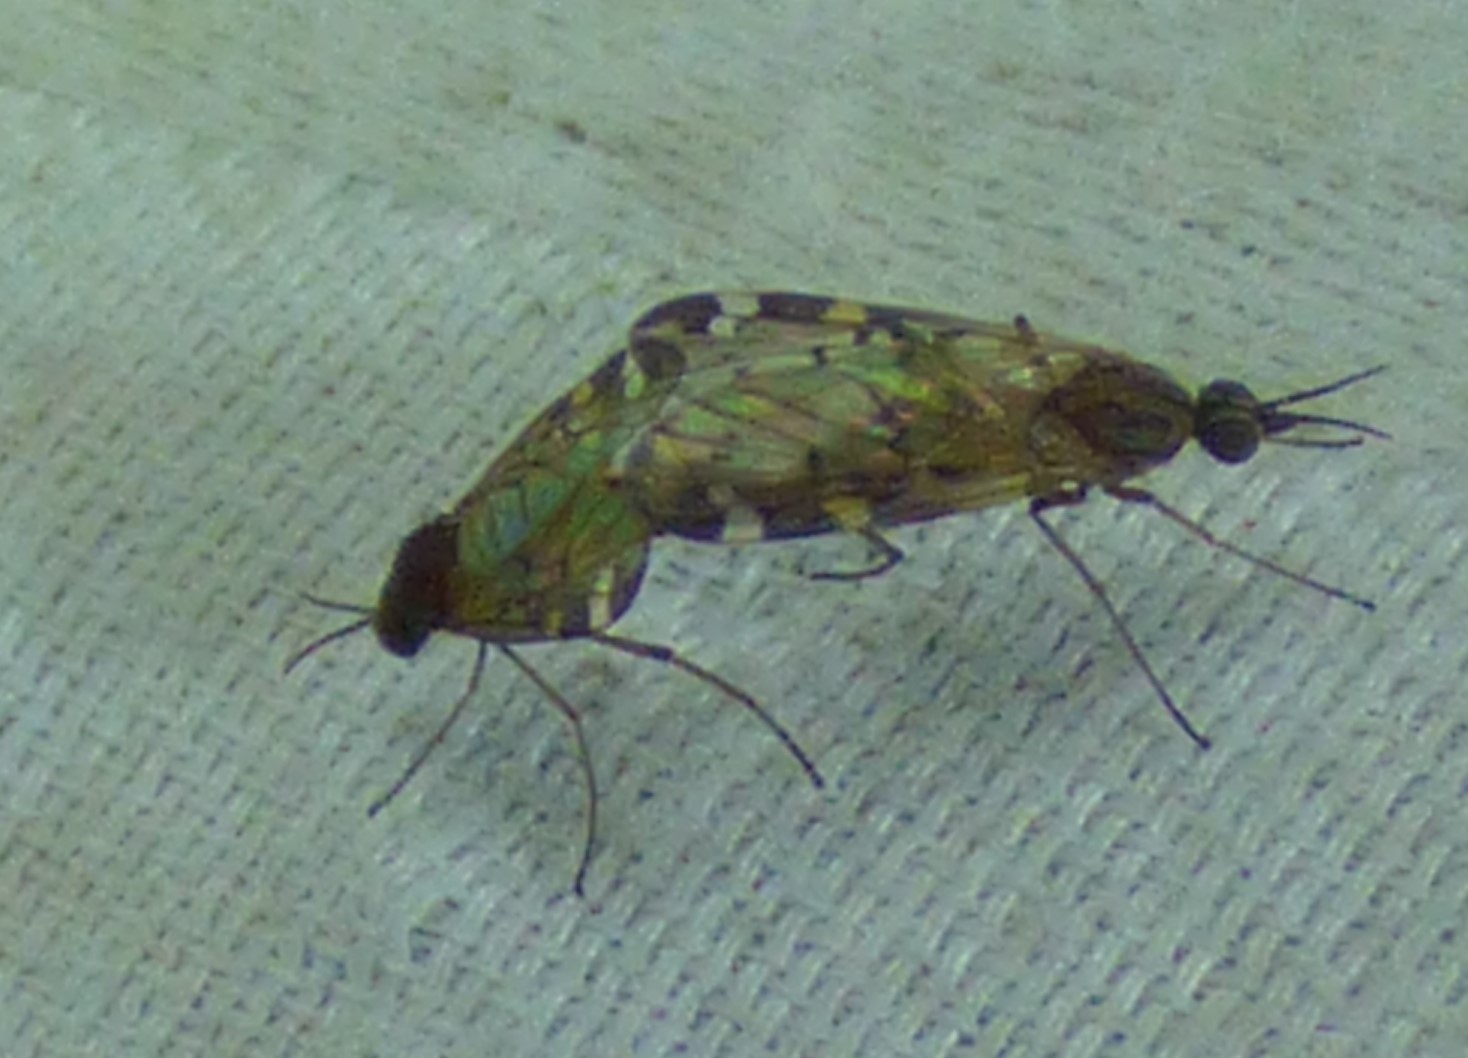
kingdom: Animalia
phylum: Arthropoda
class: Insecta
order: Diptera
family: Anisopodidae
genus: Sylvicola
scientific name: Sylvicola alternata
